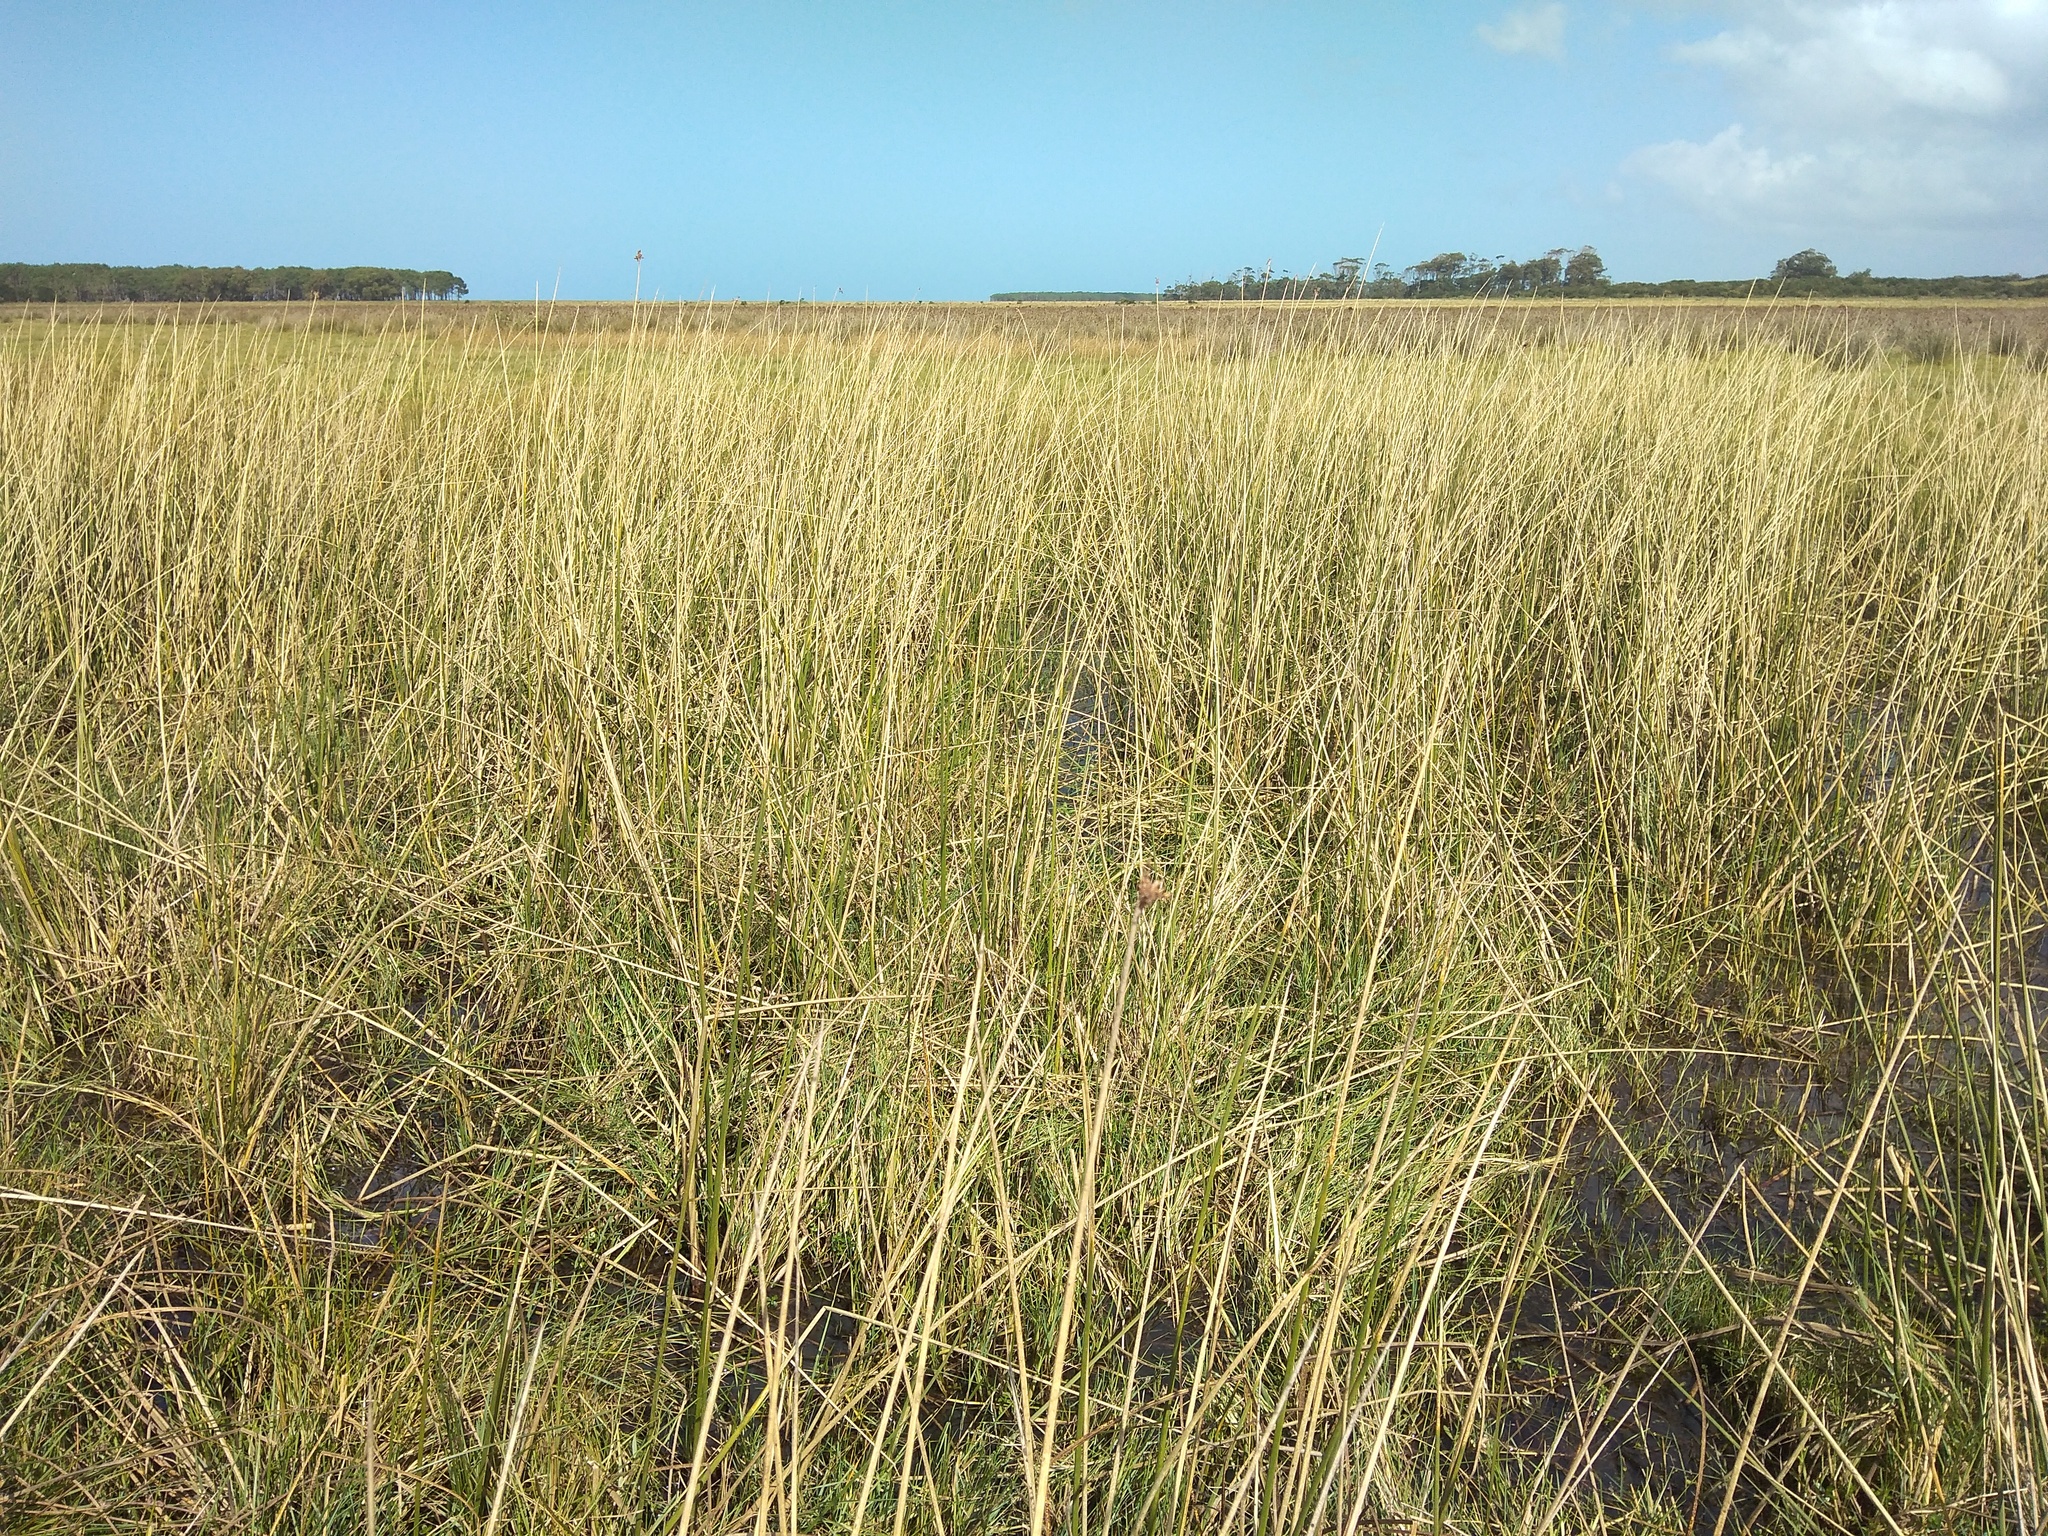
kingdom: Plantae
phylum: Tracheophyta
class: Liliopsida
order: Poales
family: Cyperaceae
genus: Schoenoplectus
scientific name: Schoenoplectus californicus
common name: California bulrush
